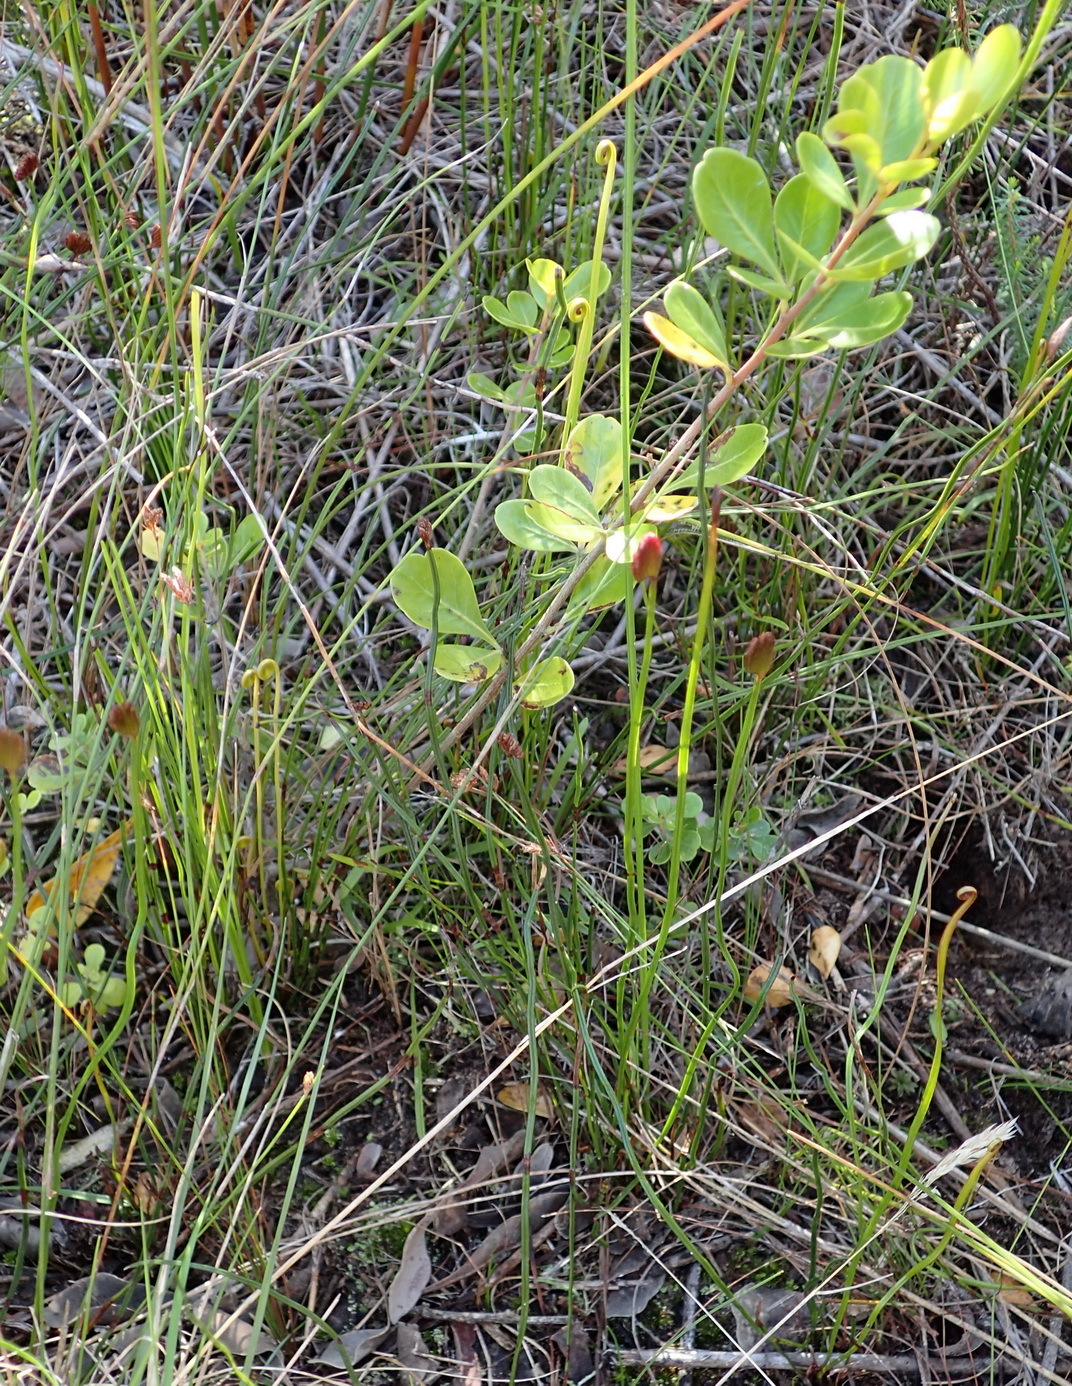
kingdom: Plantae
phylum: Tracheophyta
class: Polypodiopsida
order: Schizaeales
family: Schizaeaceae
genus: Schizaea
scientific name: Schizaea pectinata
